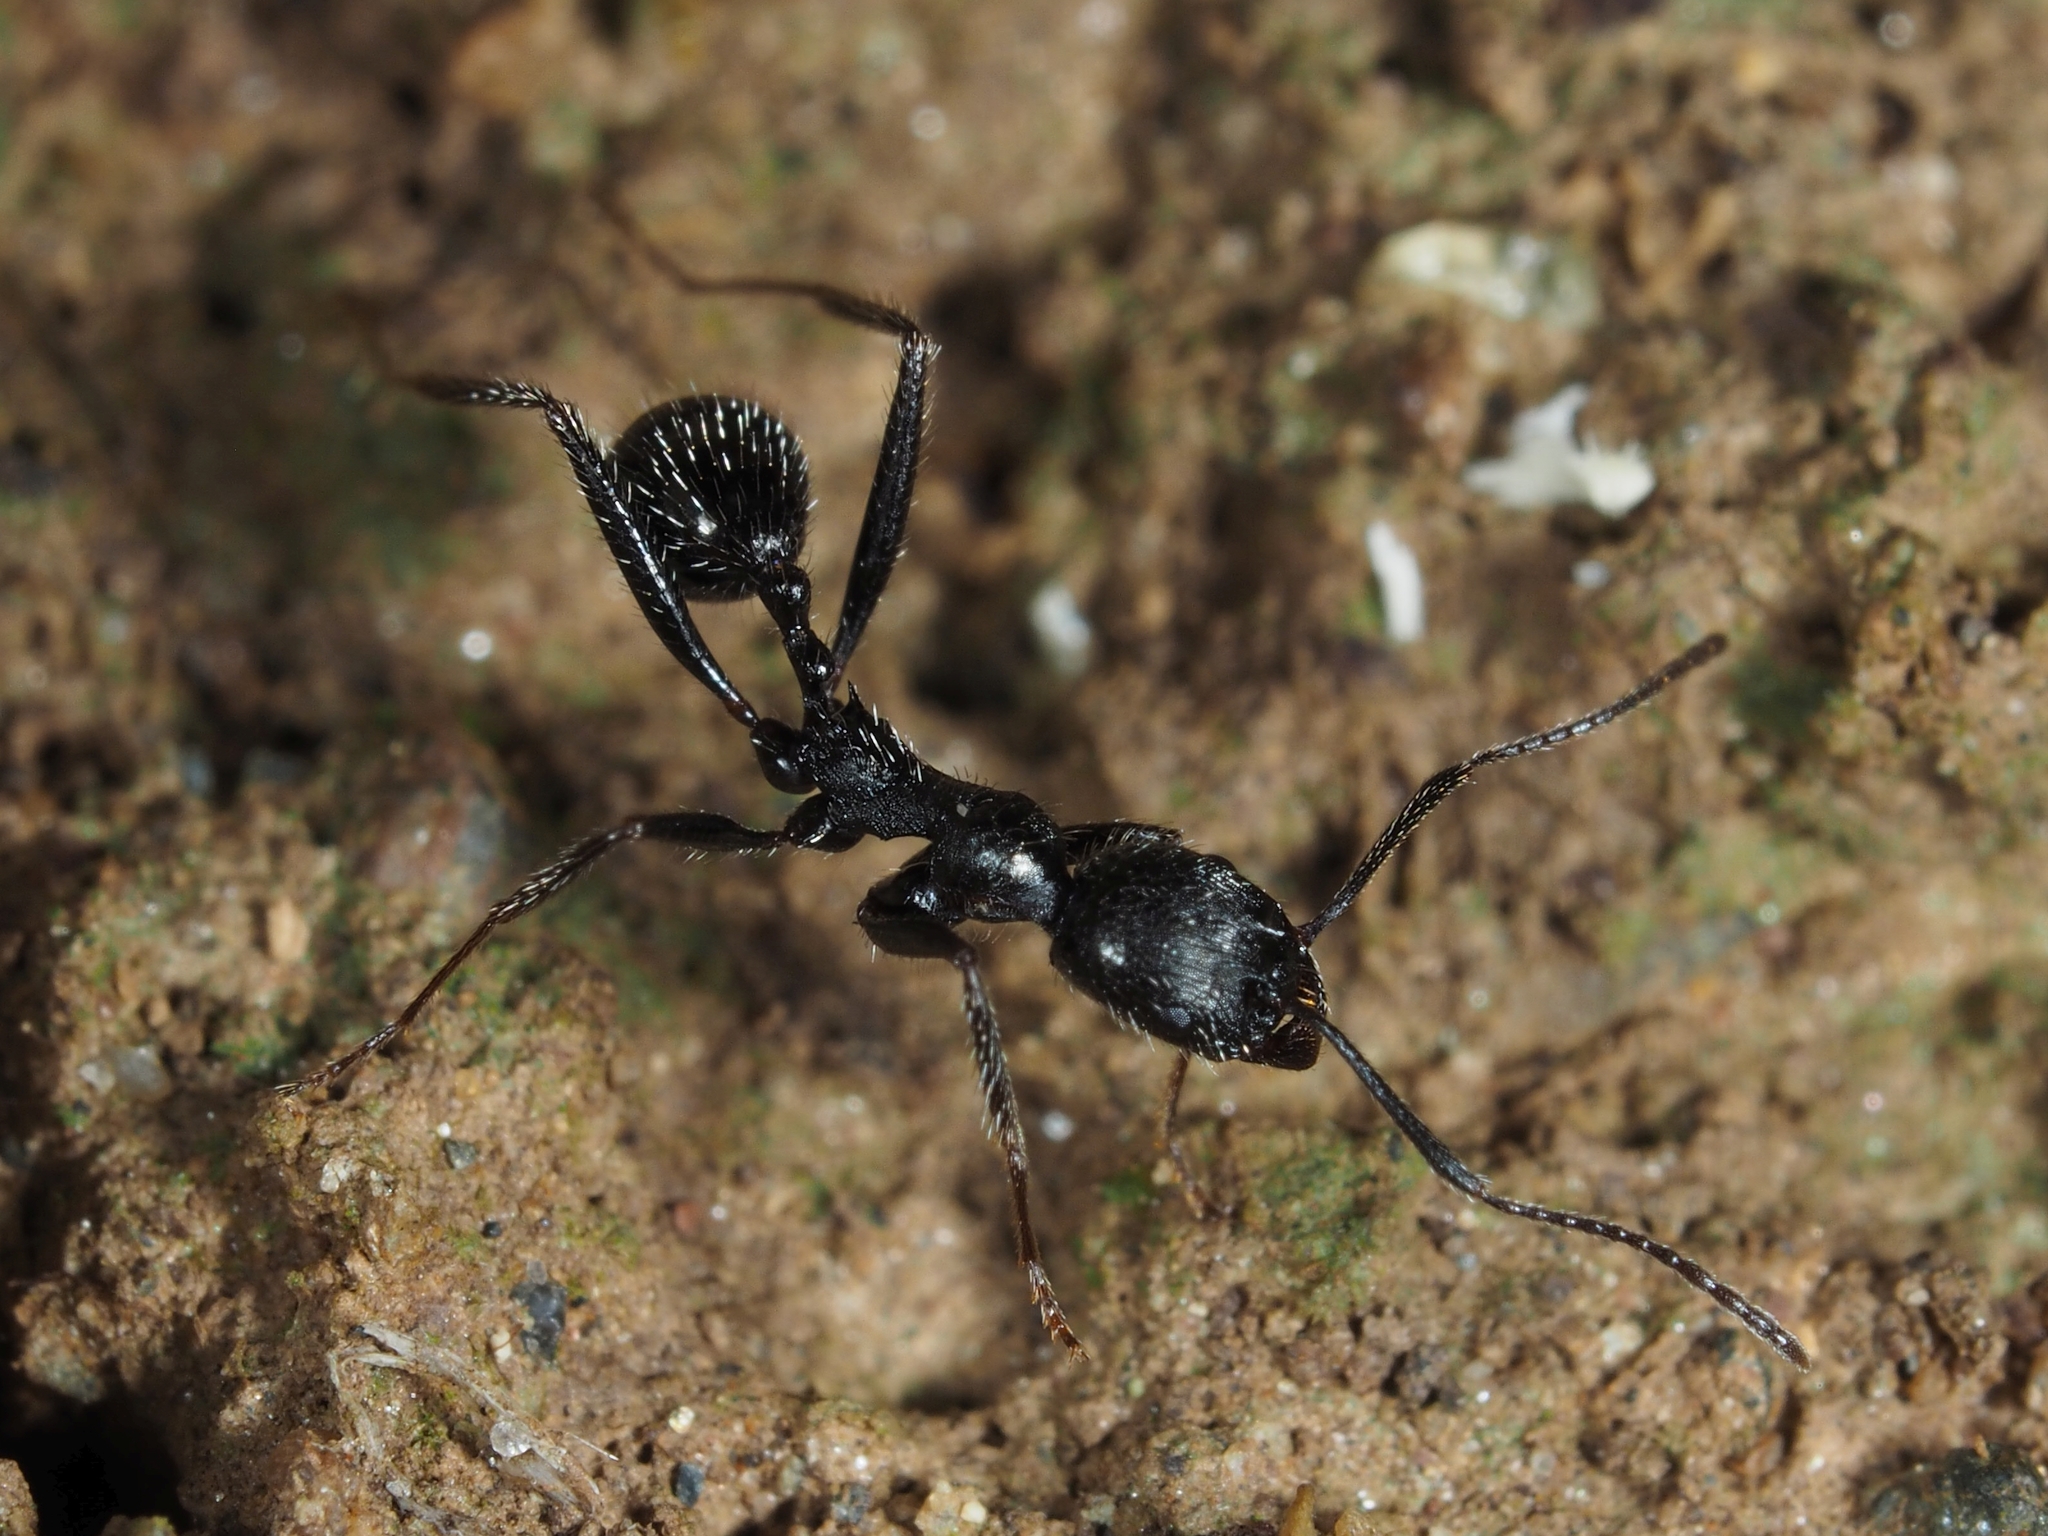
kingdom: Animalia
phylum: Arthropoda
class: Insecta
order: Hymenoptera
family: Formicidae
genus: Aphaenogaster
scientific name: Aphaenogaster semipolita
